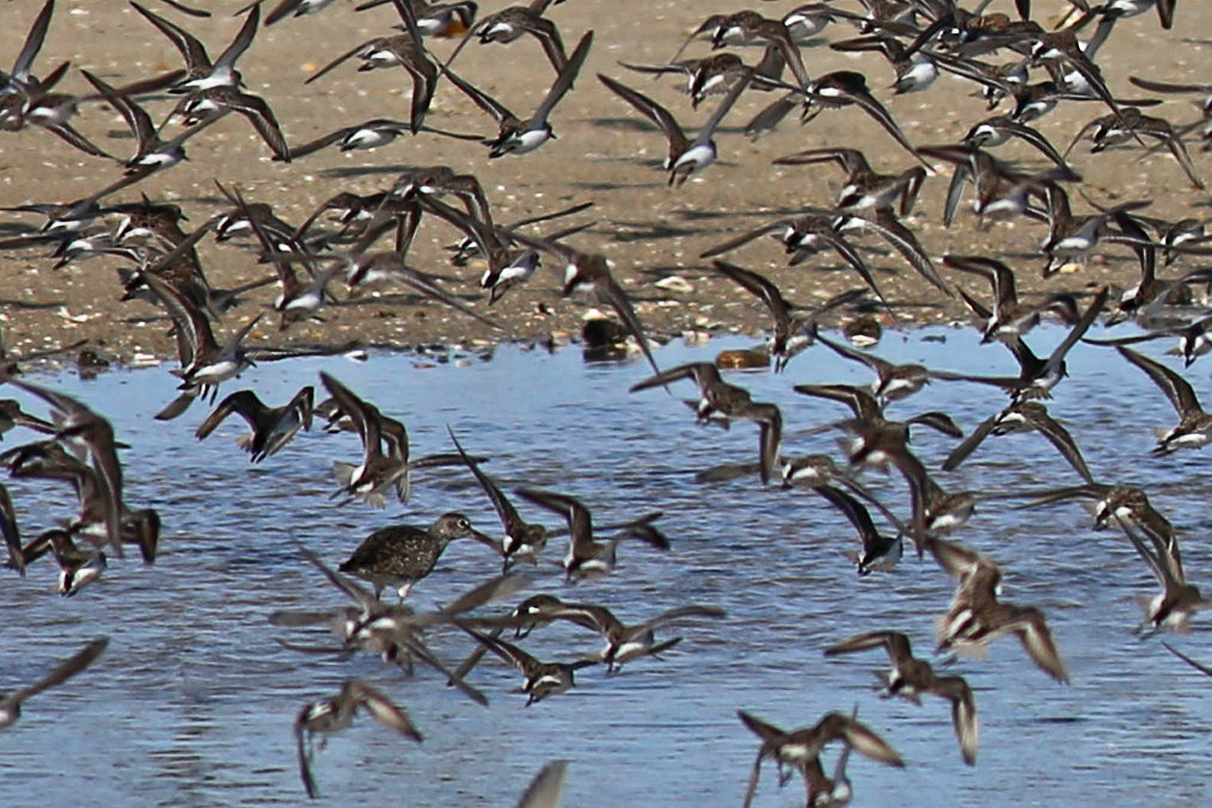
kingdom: Animalia
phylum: Chordata
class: Aves
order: Charadriiformes
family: Scolopacidae
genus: Tringa
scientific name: Tringa semipalmata
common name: Willet
